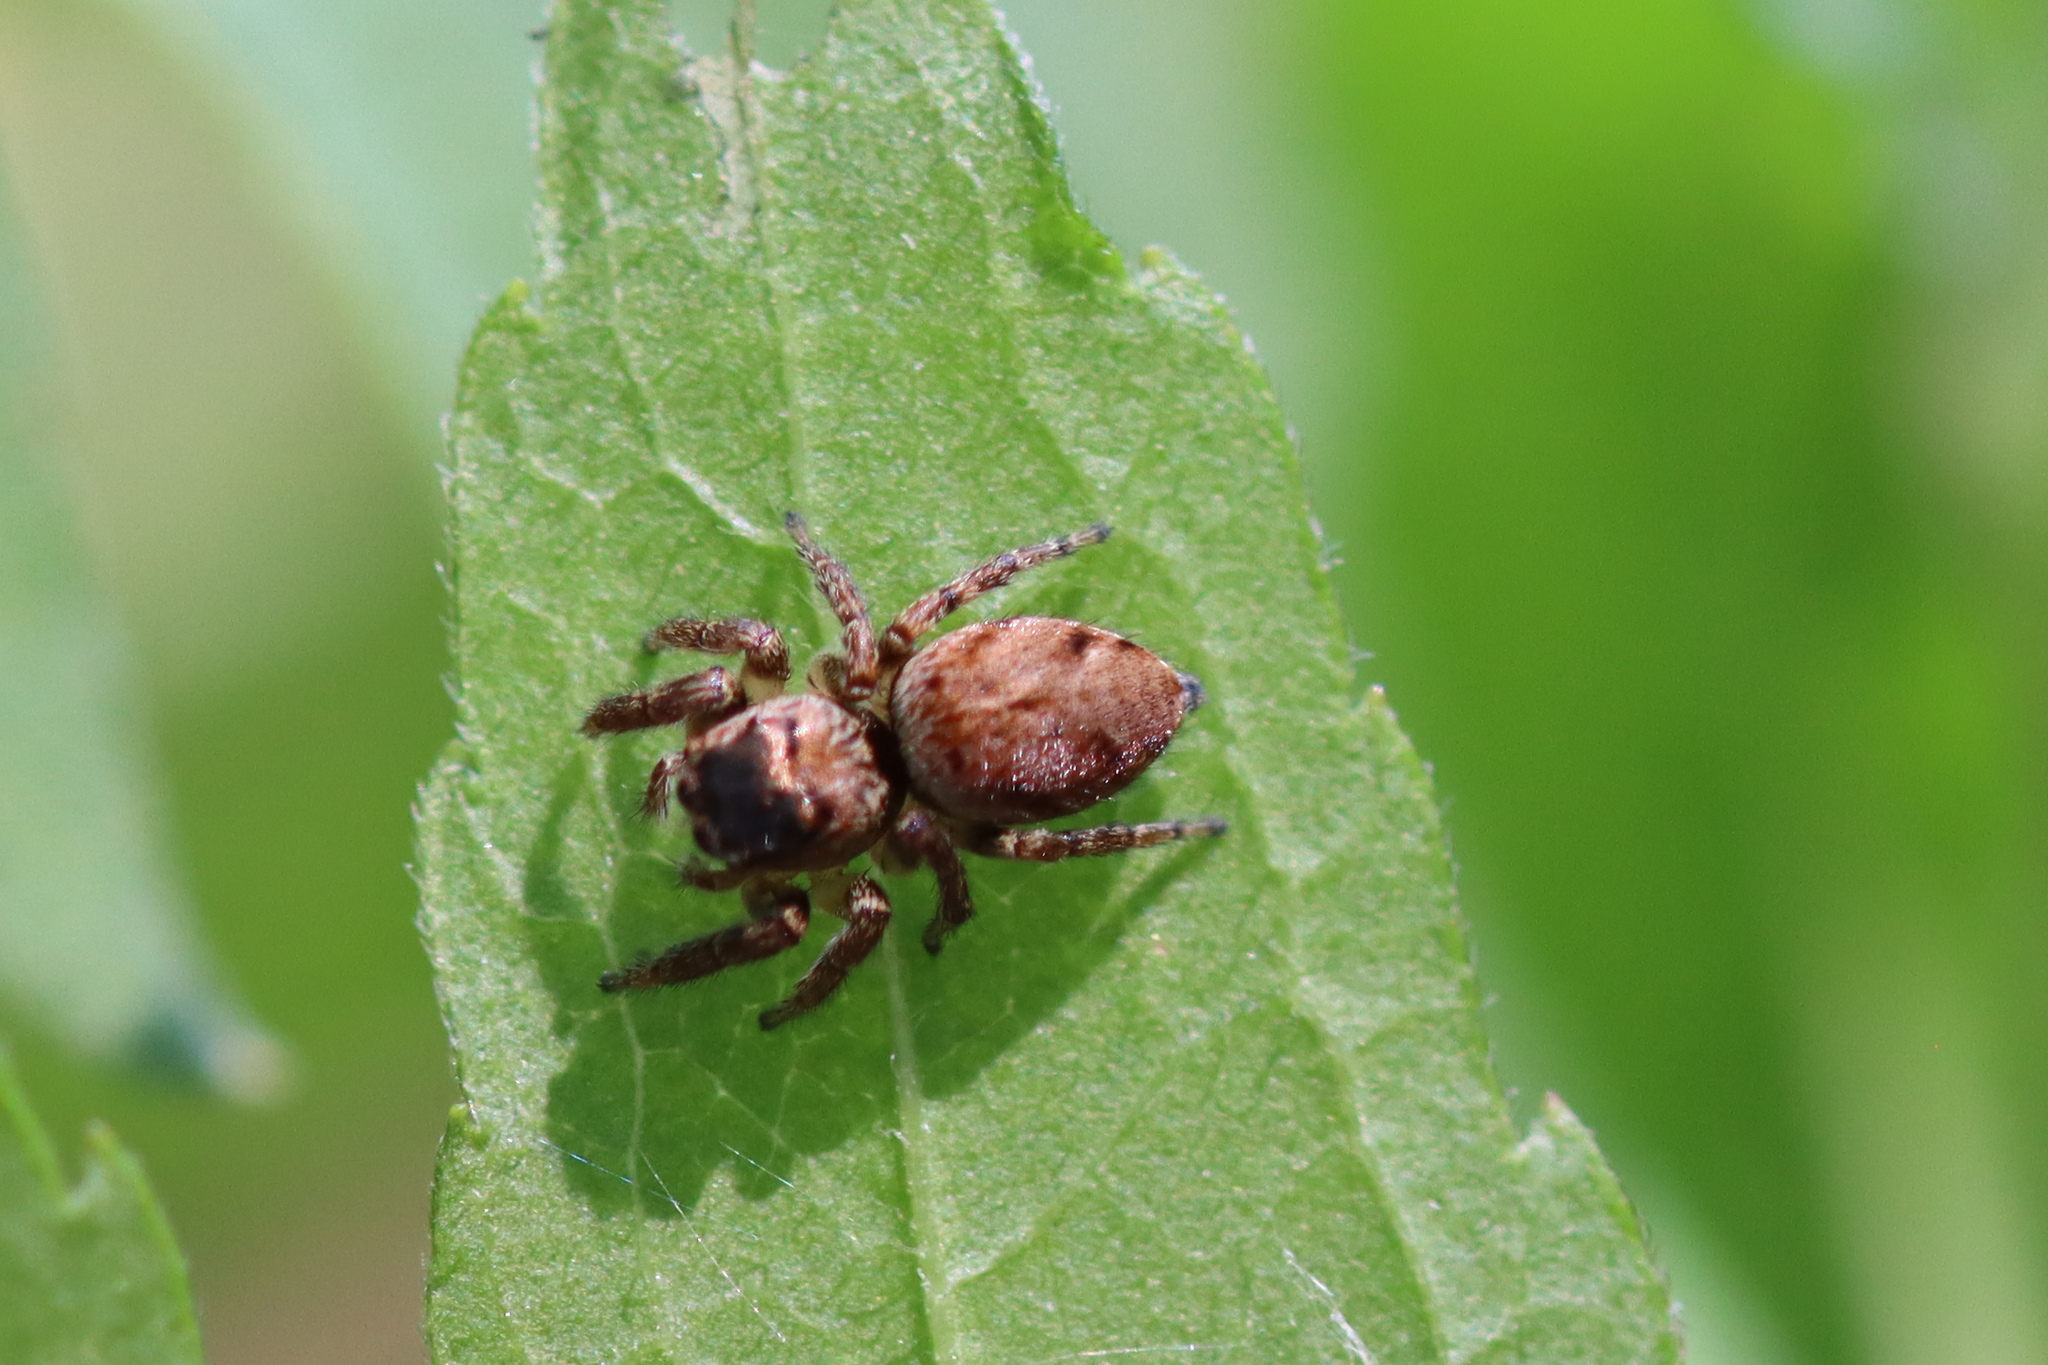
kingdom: Animalia
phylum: Arthropoda
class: Arachnida
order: Araneae
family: Salticidae
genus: Evarcha
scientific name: Evarcha arcuata
